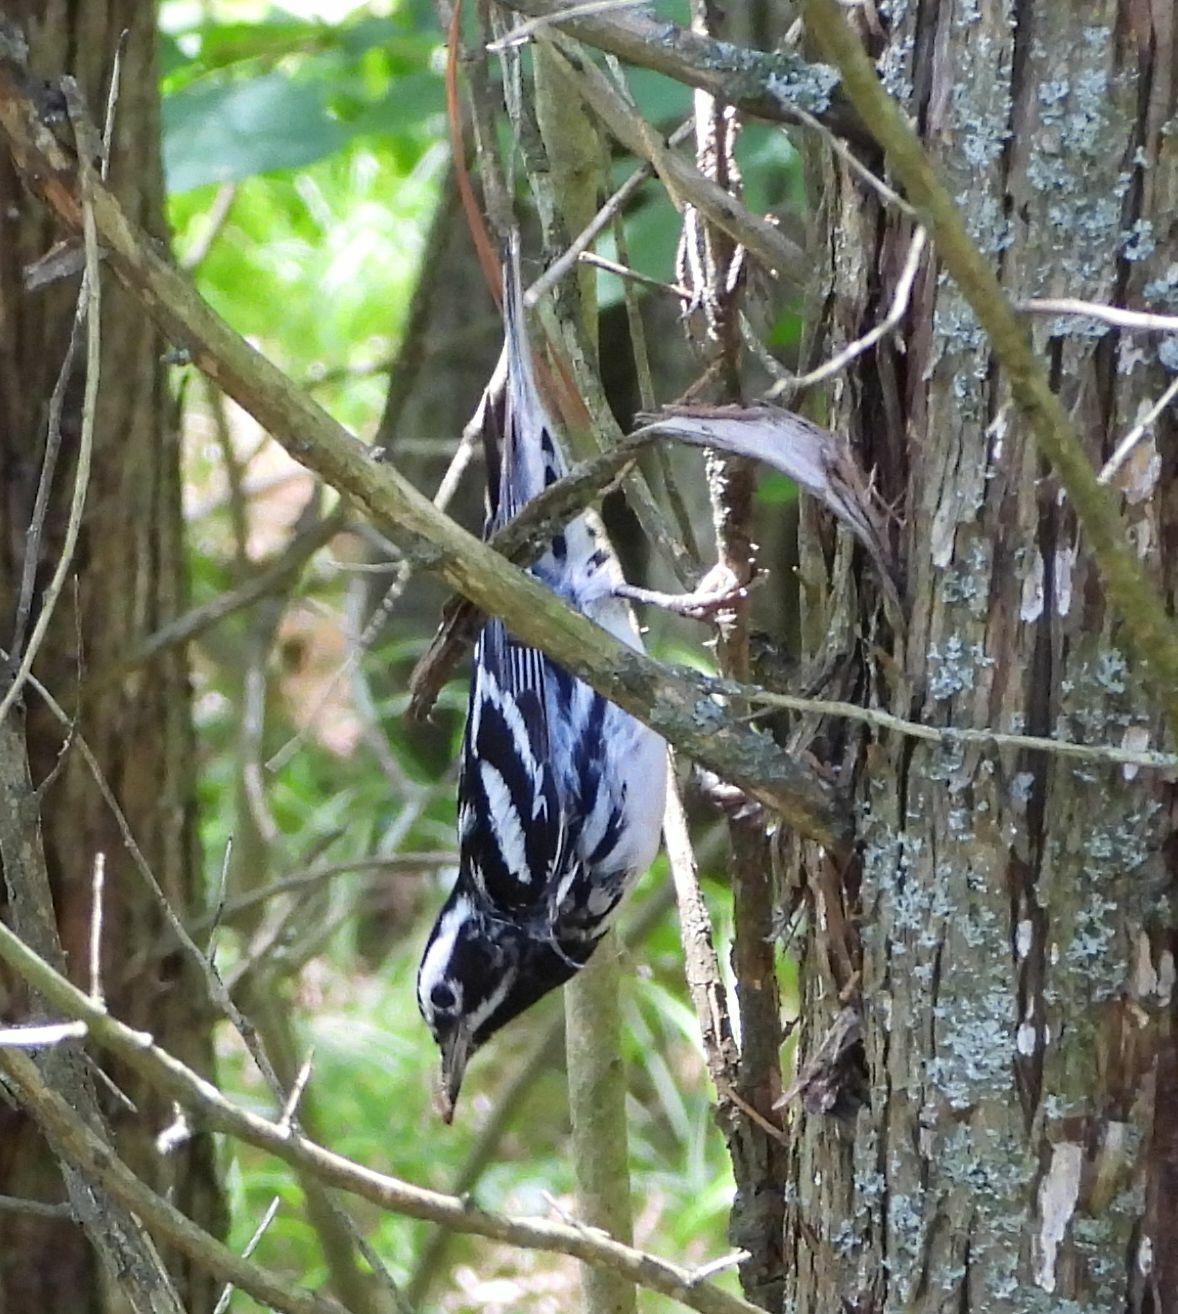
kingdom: Animalia
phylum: Chordata
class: Aves
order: Passeriformes
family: Parulidae
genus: Mniotilta
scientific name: Mniotilta varia
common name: Black-and-white warbler
